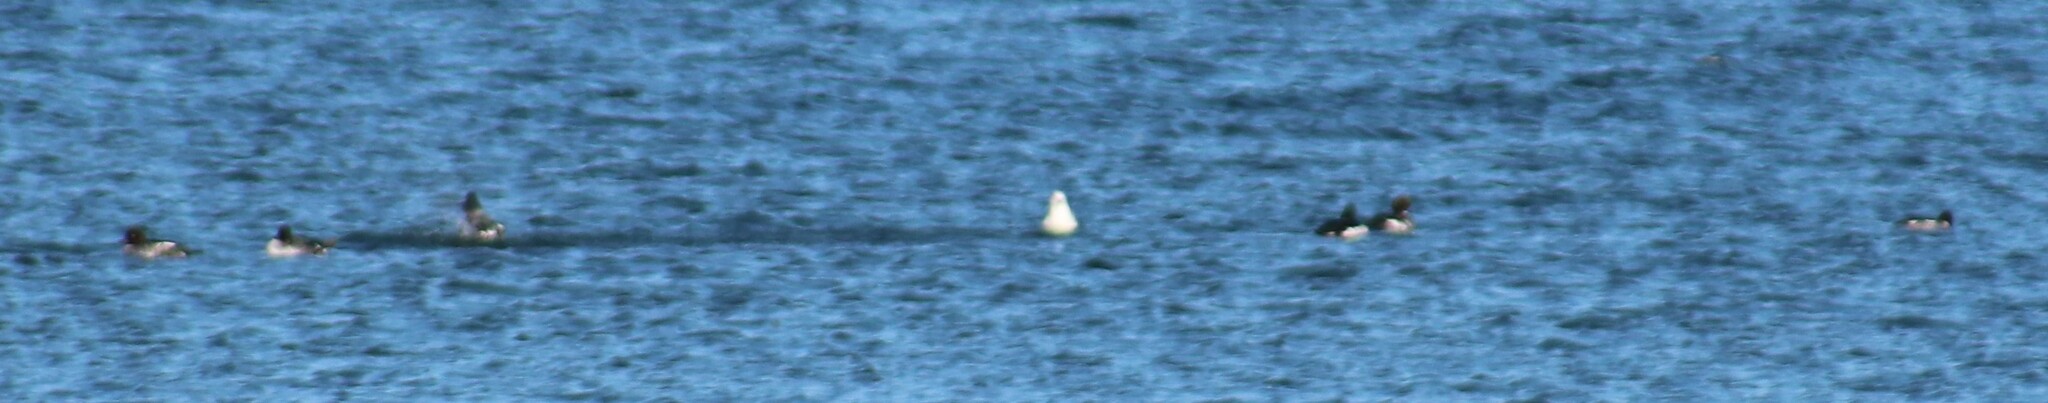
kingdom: Animalia
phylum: Chordata
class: Aves
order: Anseriformes
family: Anatidae
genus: Bucephala
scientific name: Bucephala clangula
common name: Common goldeneye
